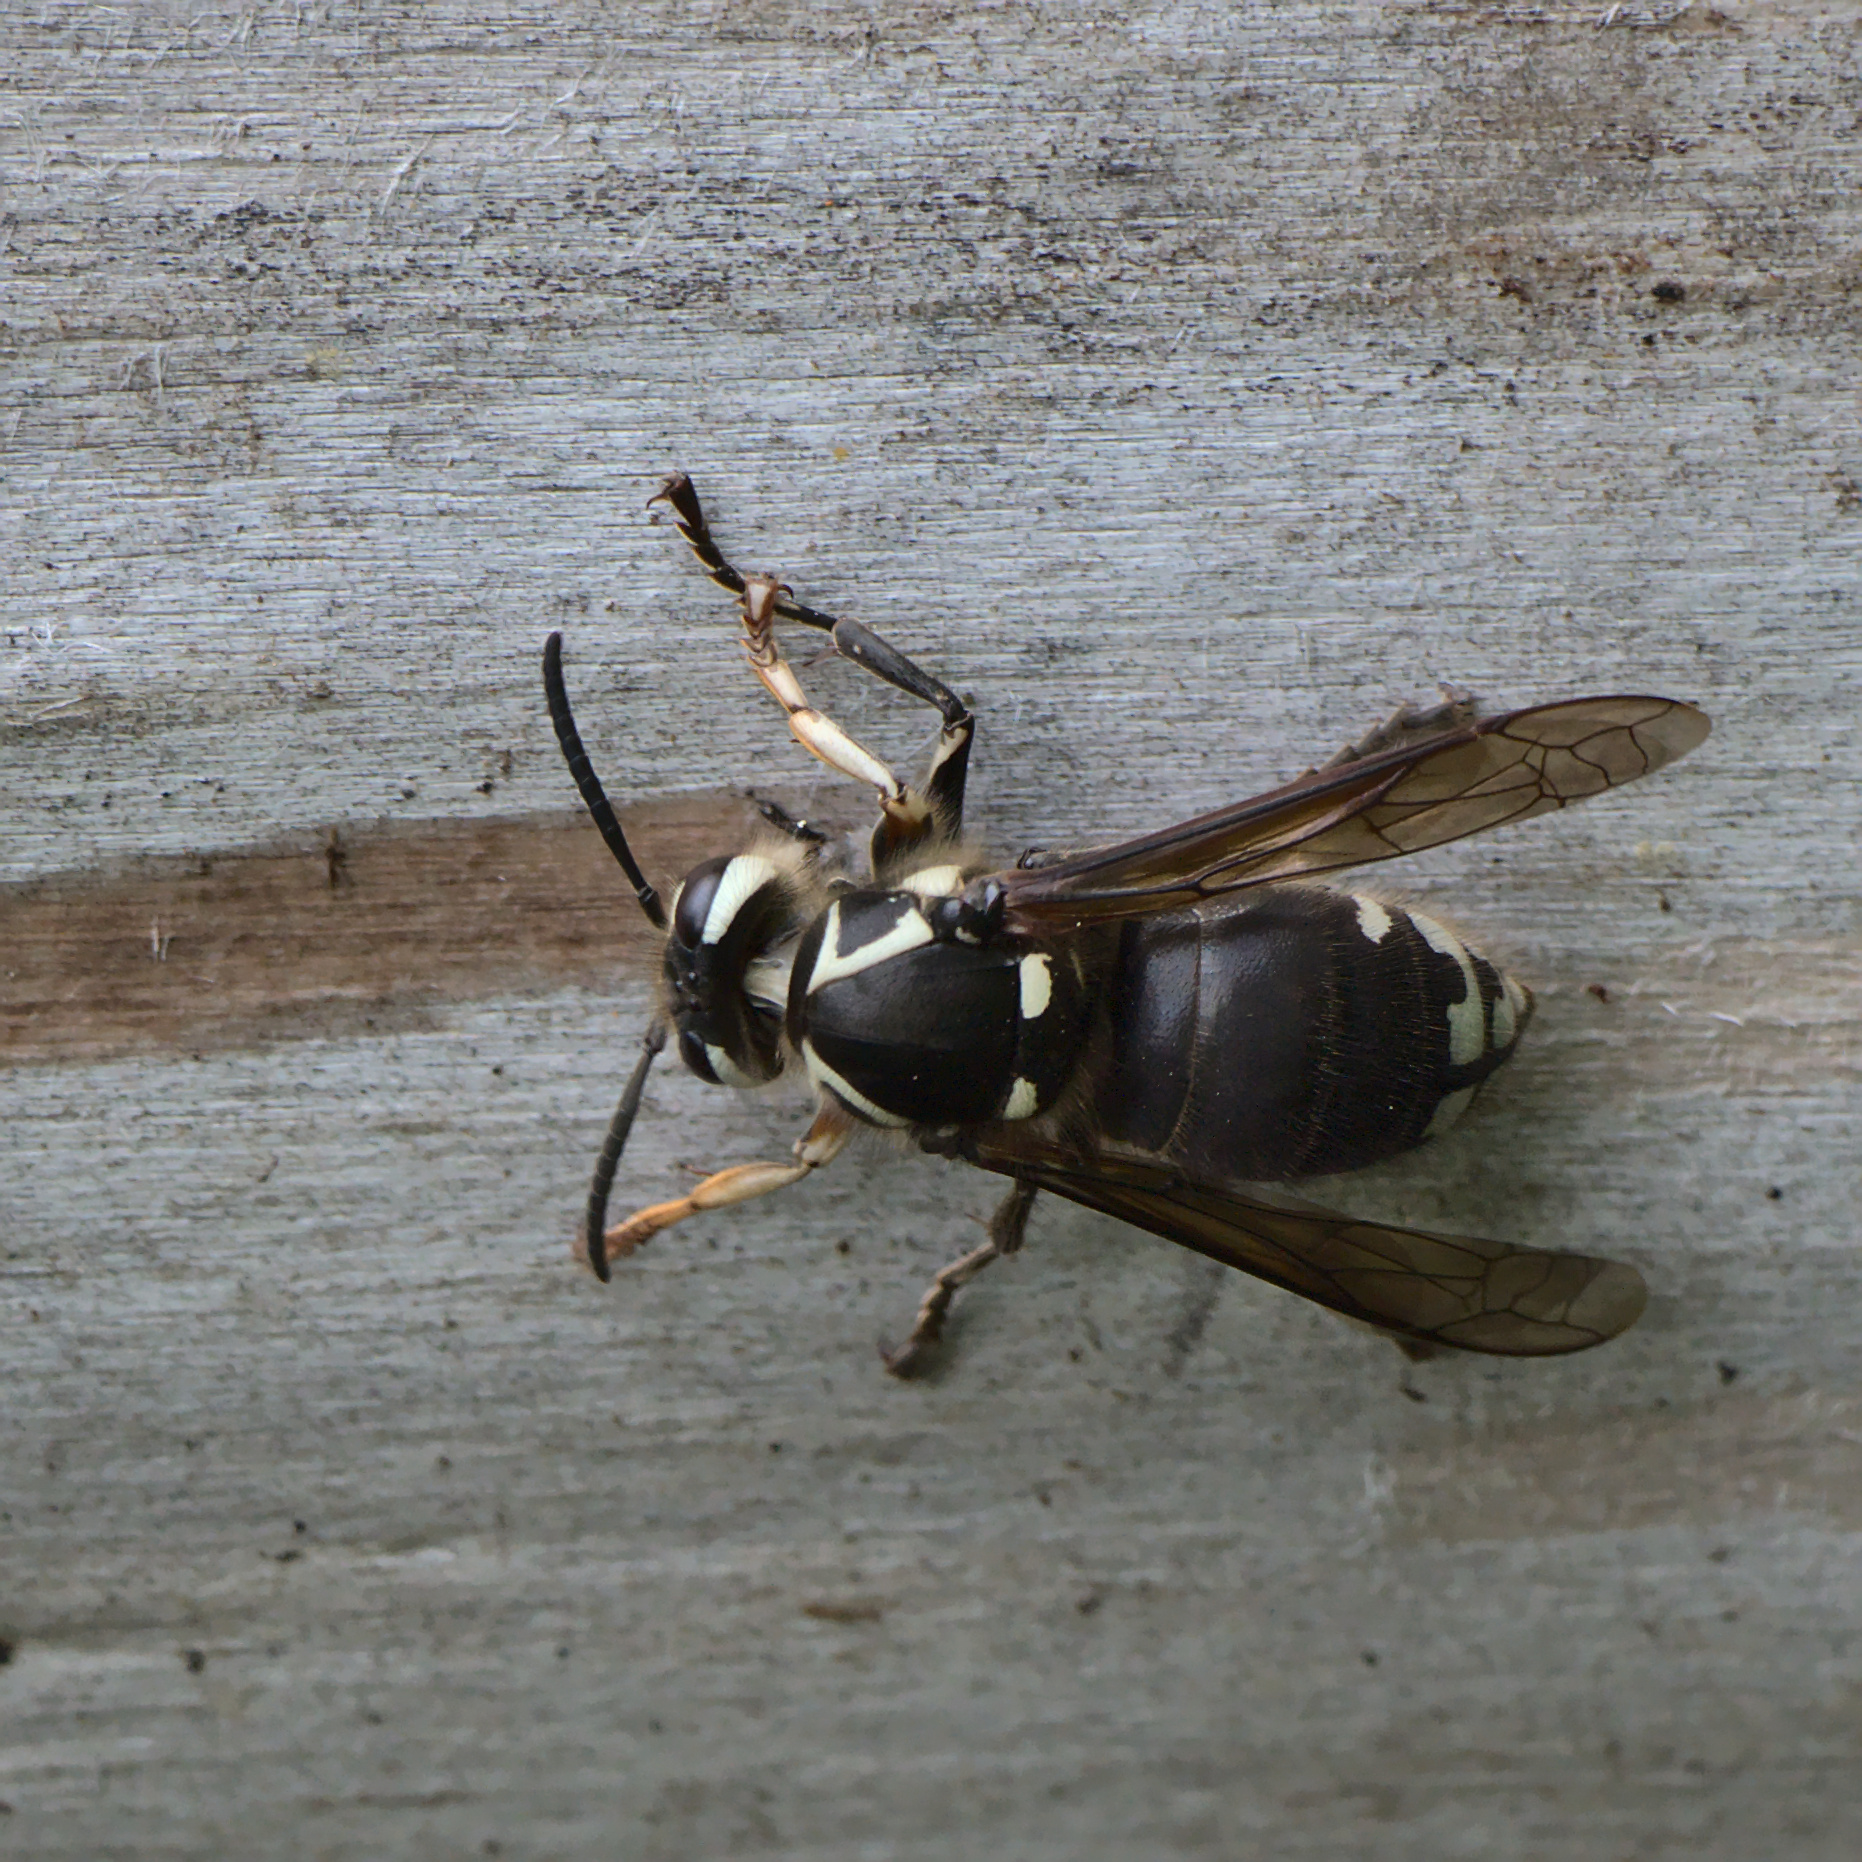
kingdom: Animalia
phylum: Arthropoda
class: Insecta
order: Hymenoptera
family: Vespidae
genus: Dolichovespula
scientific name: Dolichovespula maculata
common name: Bald-faced hornet
